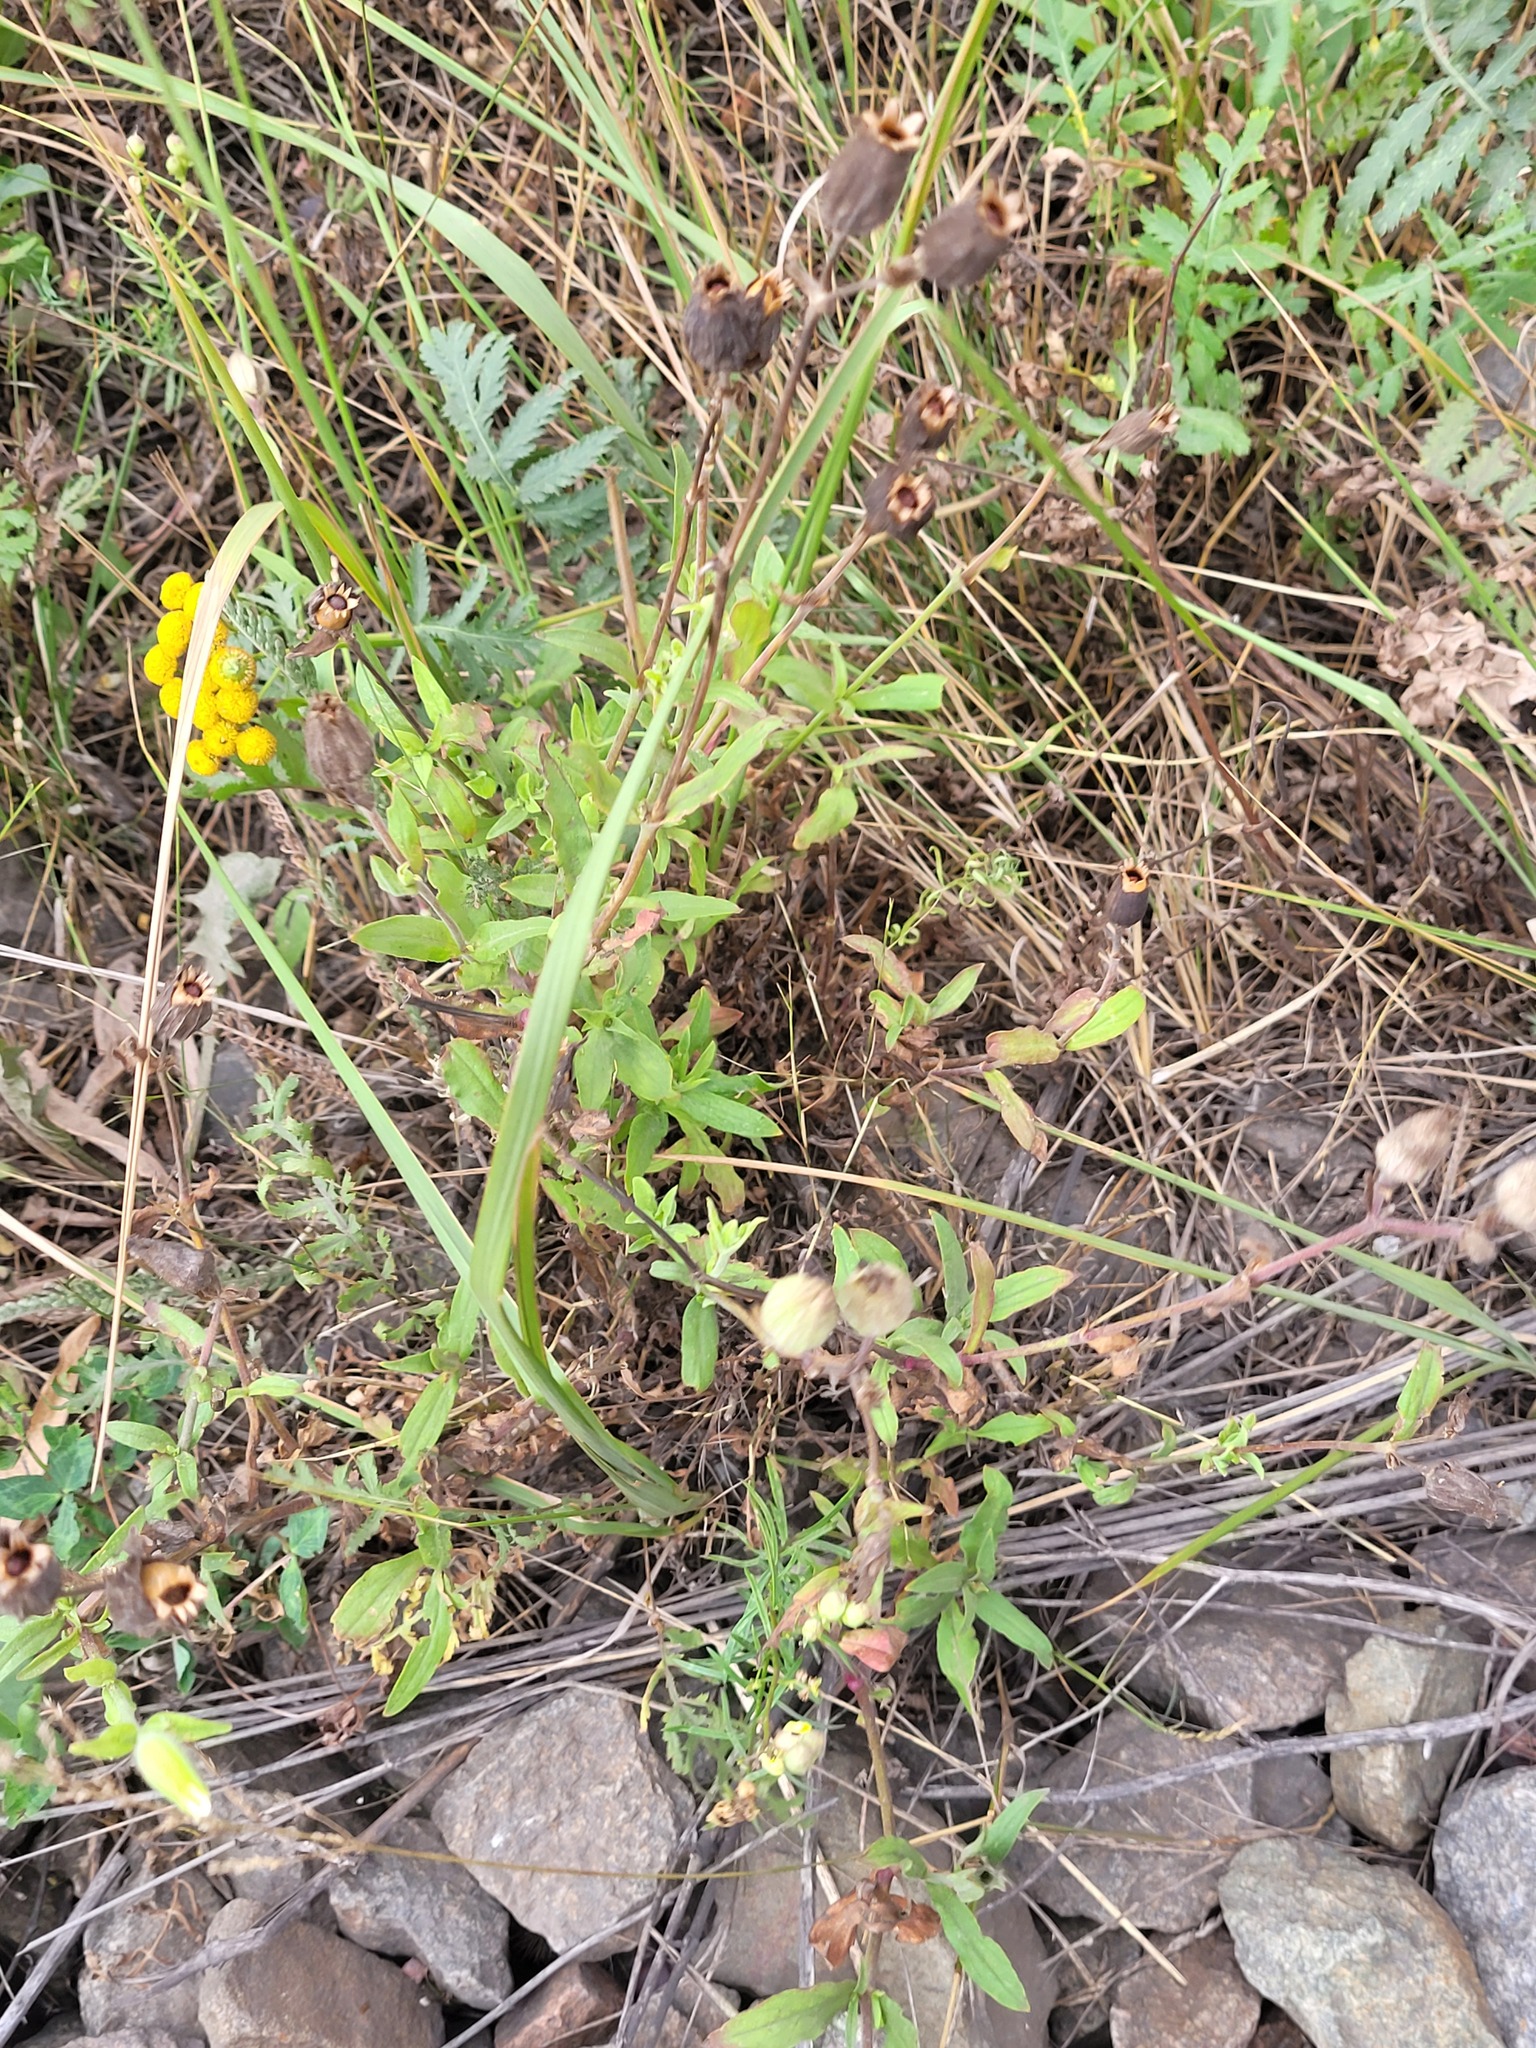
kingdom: Plantae
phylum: Tracheophyta
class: Magnoliopsida
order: Caryophyllales
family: Caryophyllaceae
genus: Silene
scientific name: Silene latifolia
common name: White campion
